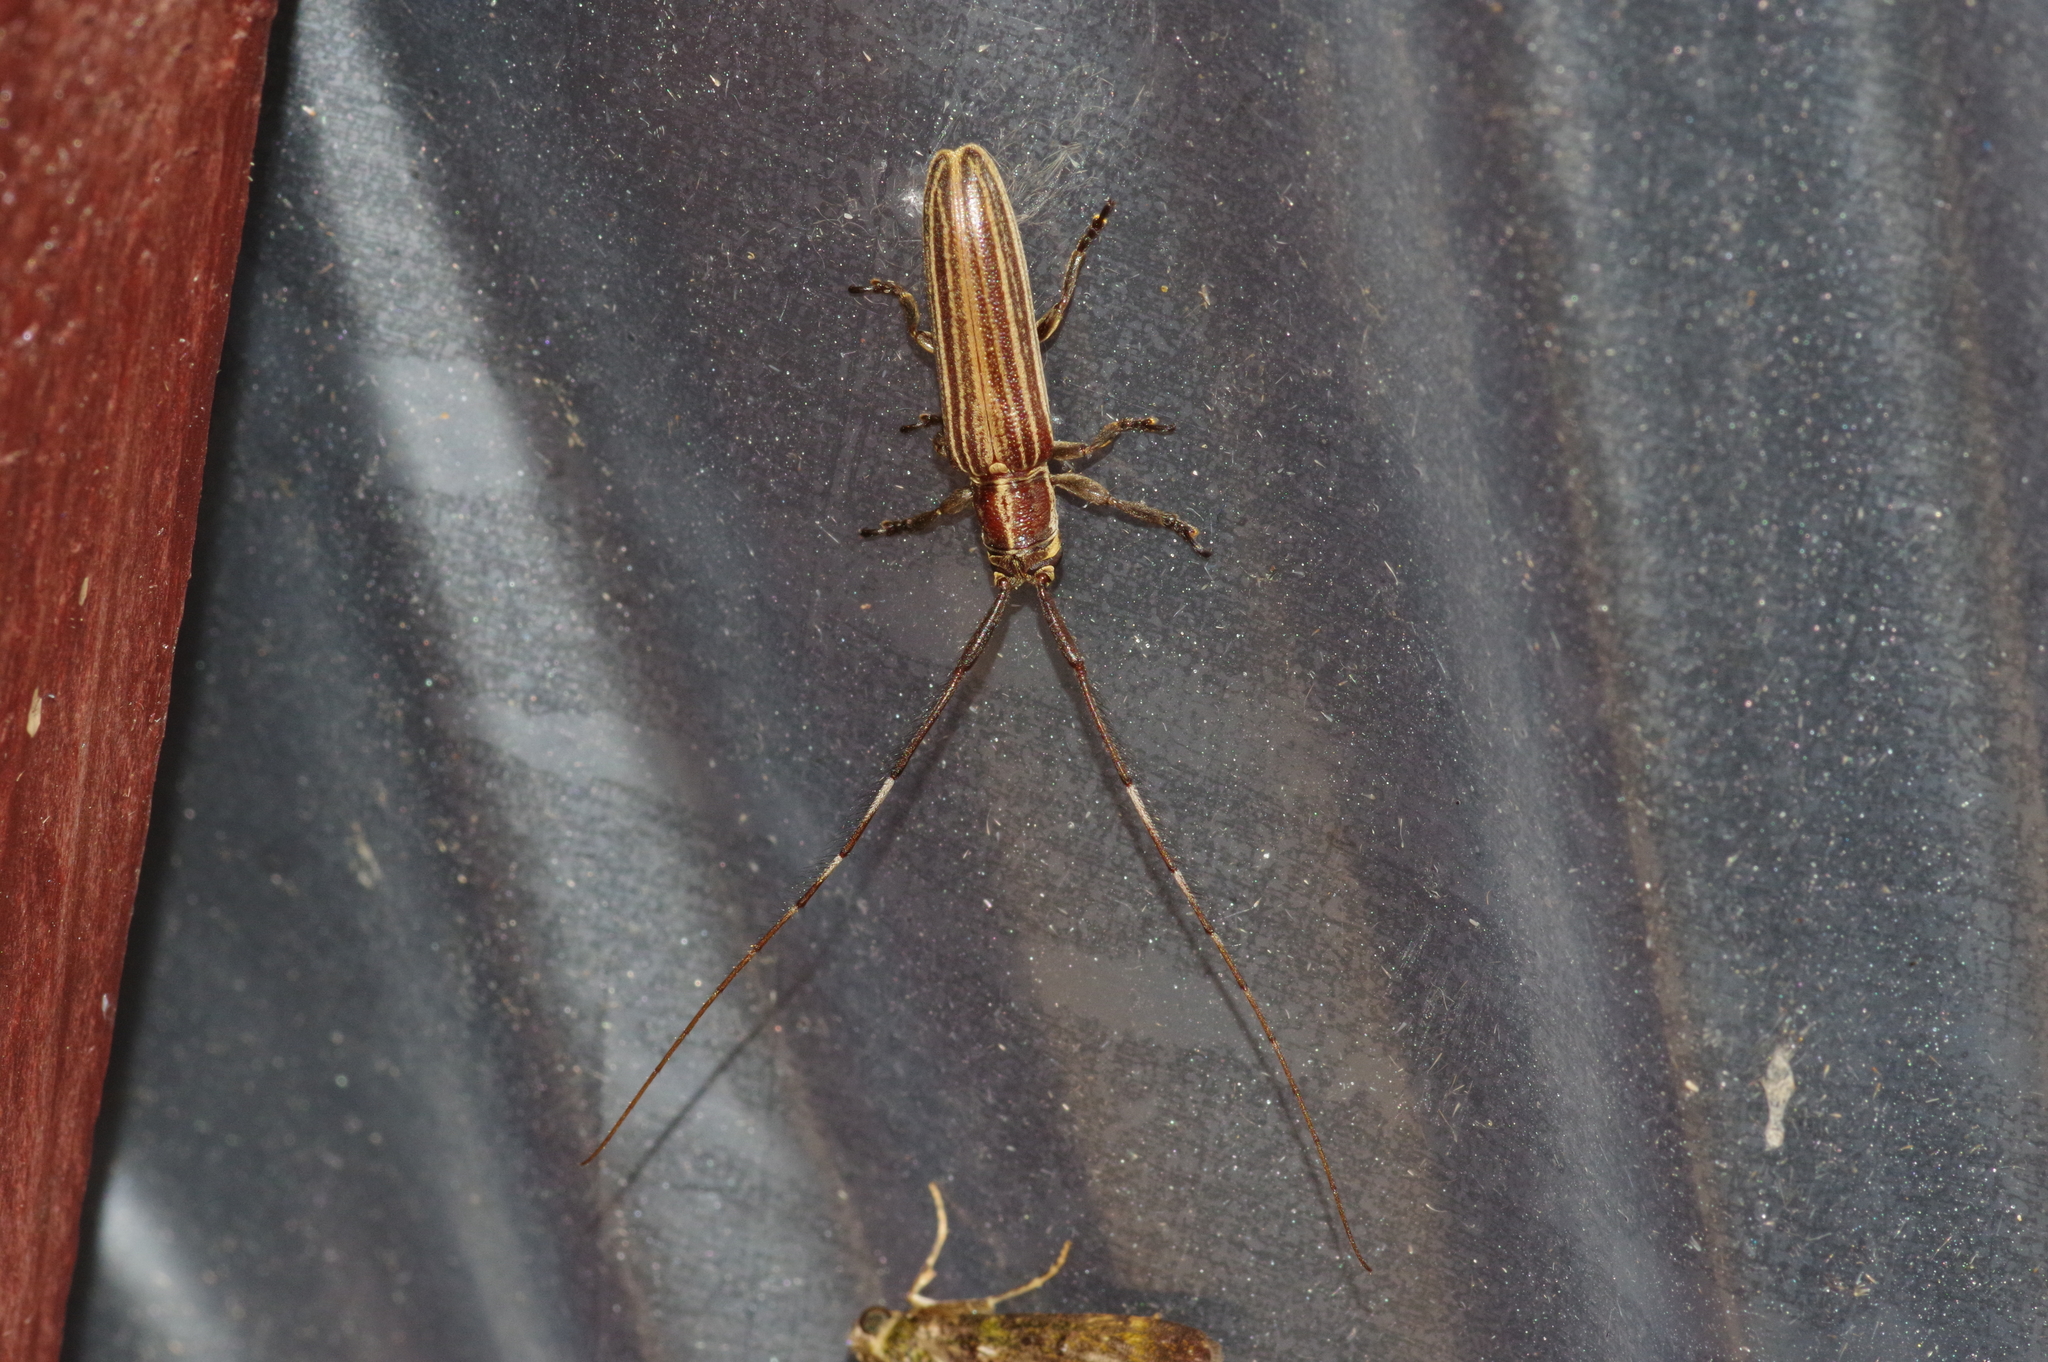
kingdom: Animalia
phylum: Arthropoda
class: Insecta
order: Coleoptera
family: Cerambycidae
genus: Pothyne
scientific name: Pothyne annulata
